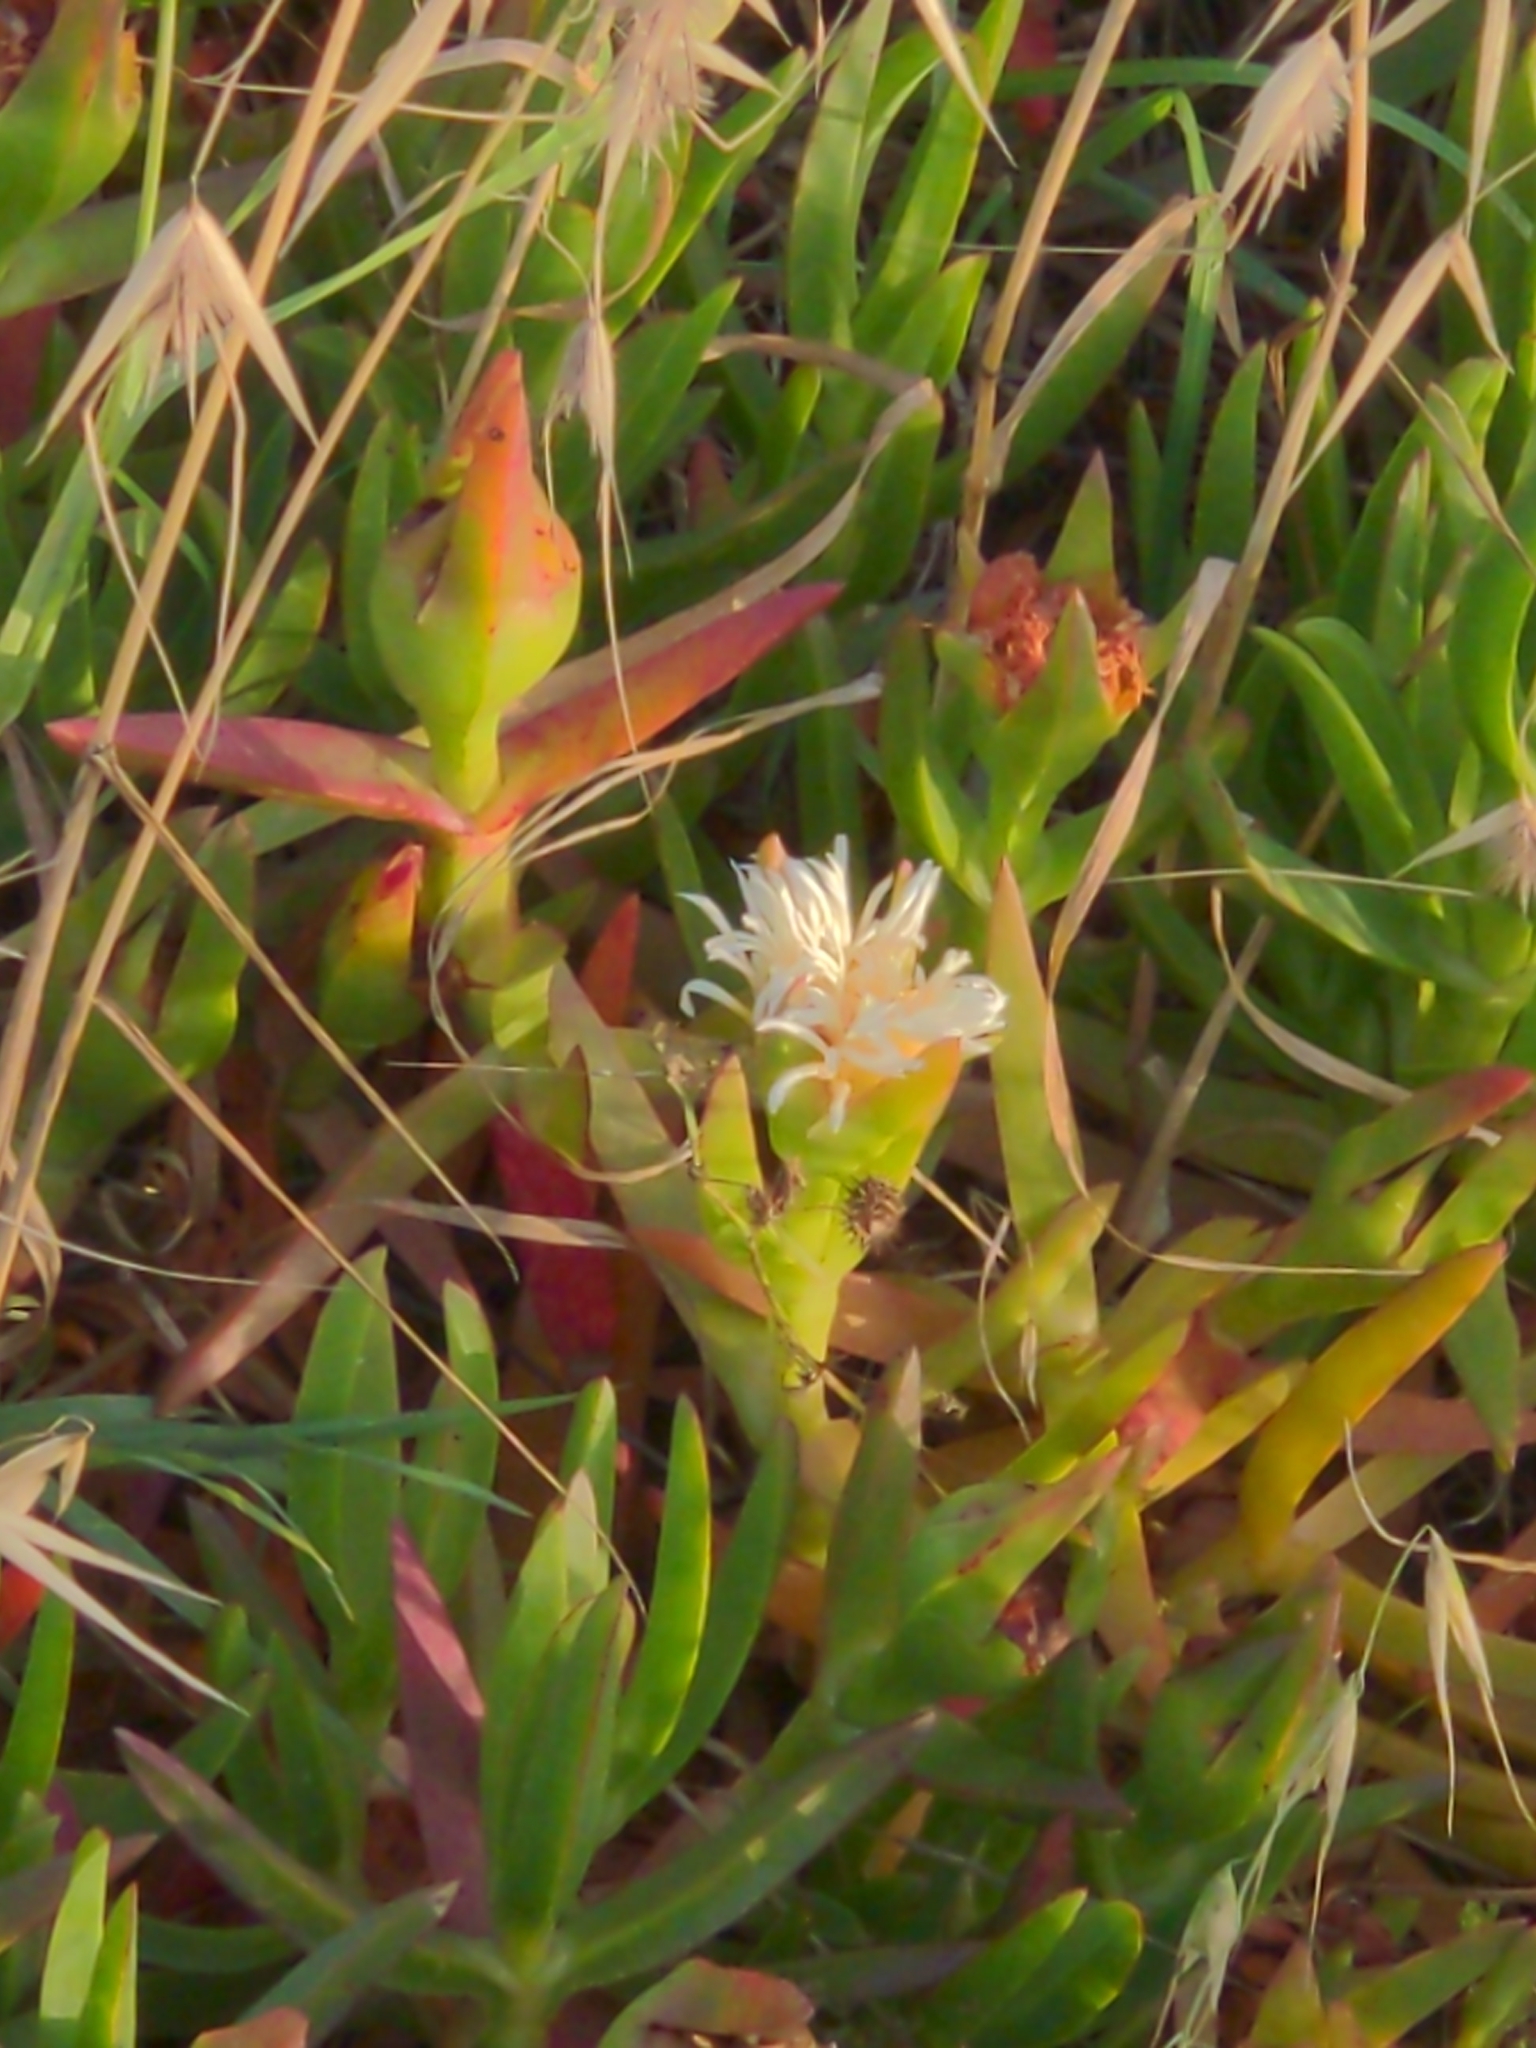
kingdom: Plantae
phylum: Tracheophyta
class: Magnoliopsida
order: Caryophyllales
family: Aizoaceae
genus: Carpobrotus
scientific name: Carpobrotus edulis
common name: Hottentot-fig
